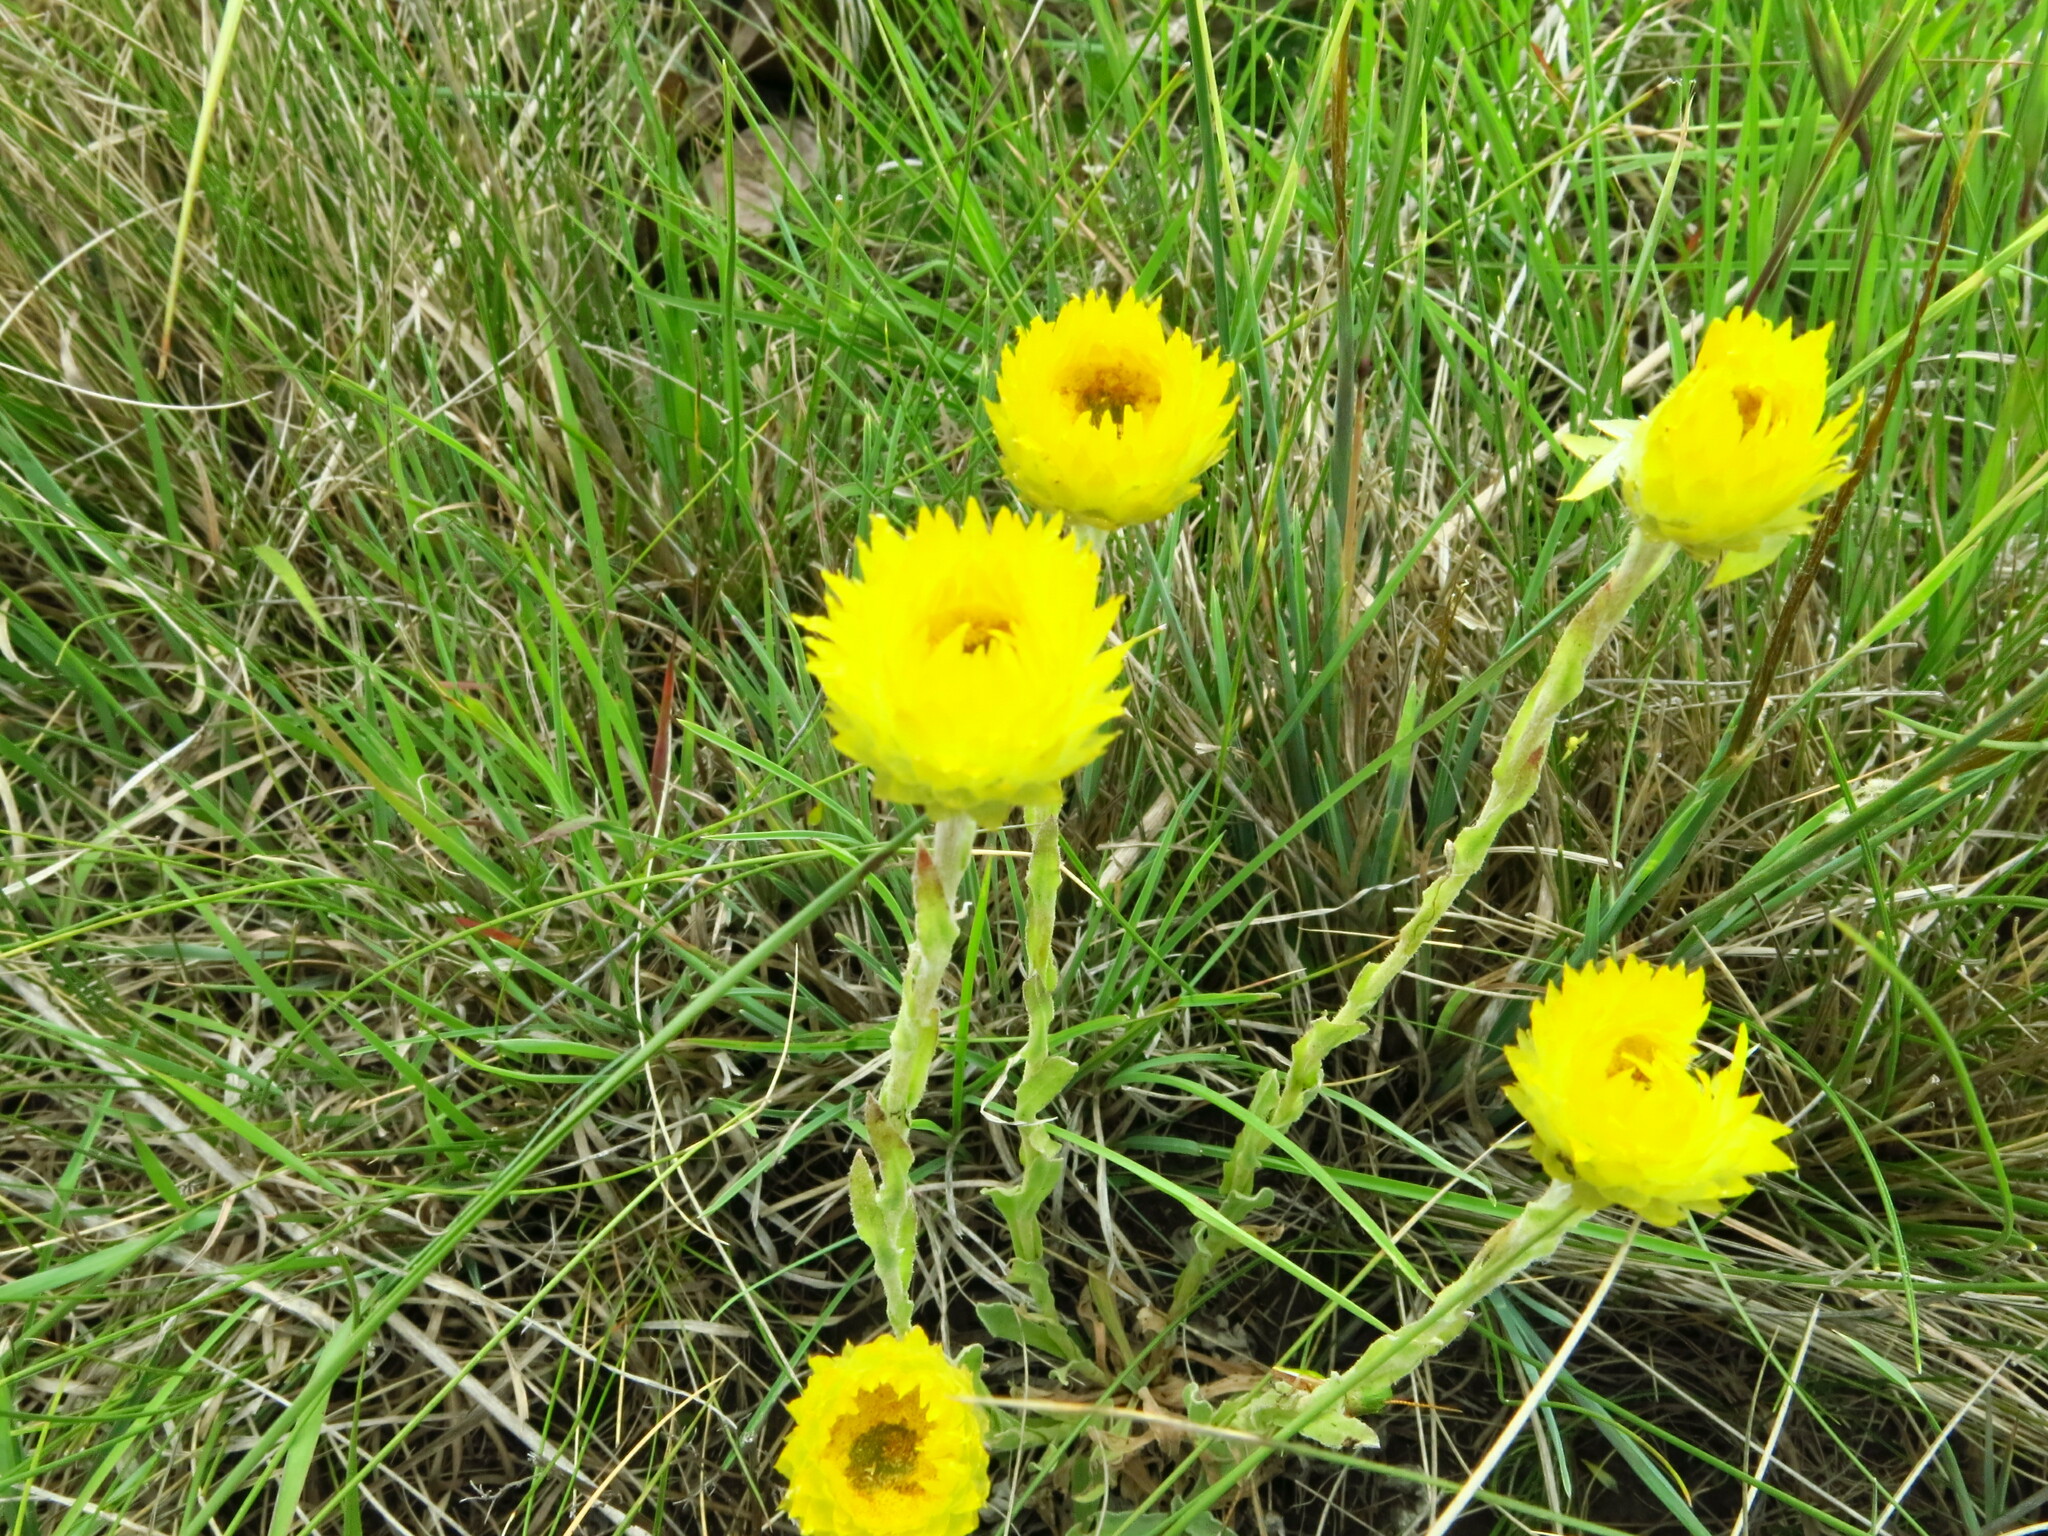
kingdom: Plantae
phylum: Tracheophyta
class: Magnoliopsida
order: Asterales
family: Asteraceae
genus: Helichrysum
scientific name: Helichrysum aureum
